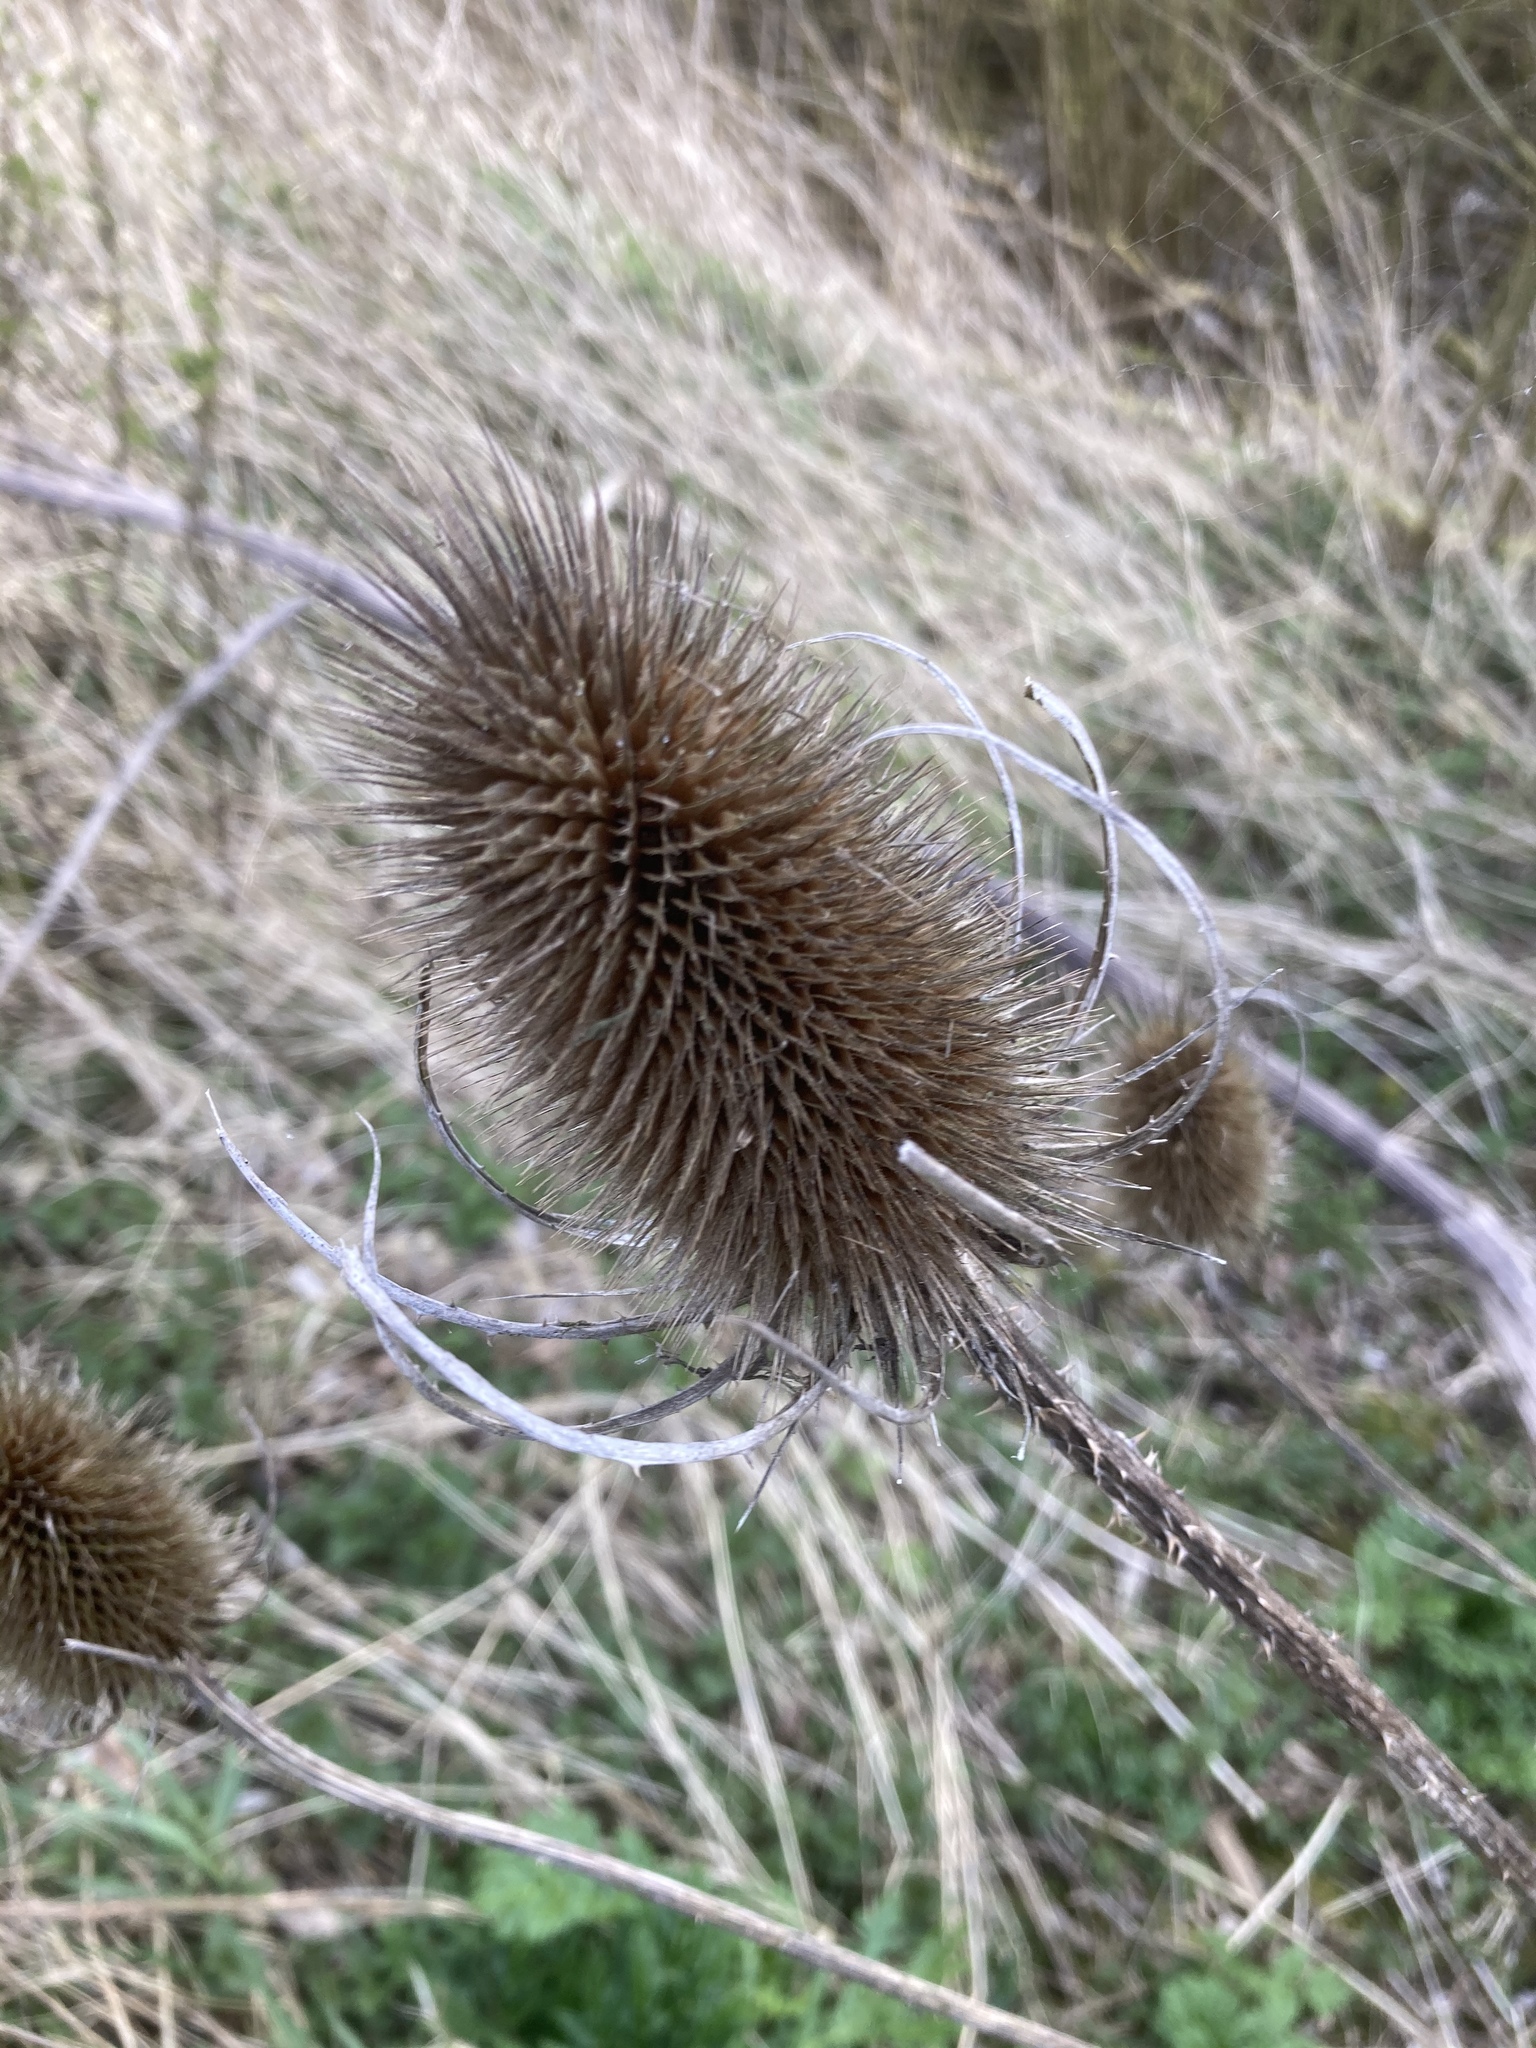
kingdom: Plantae
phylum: Tracheophyta
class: Magnoliopsida
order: Dipsacales
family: Caprifoliaceae
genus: Dipsacus
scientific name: Dipsacus fullonum
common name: Teasel
